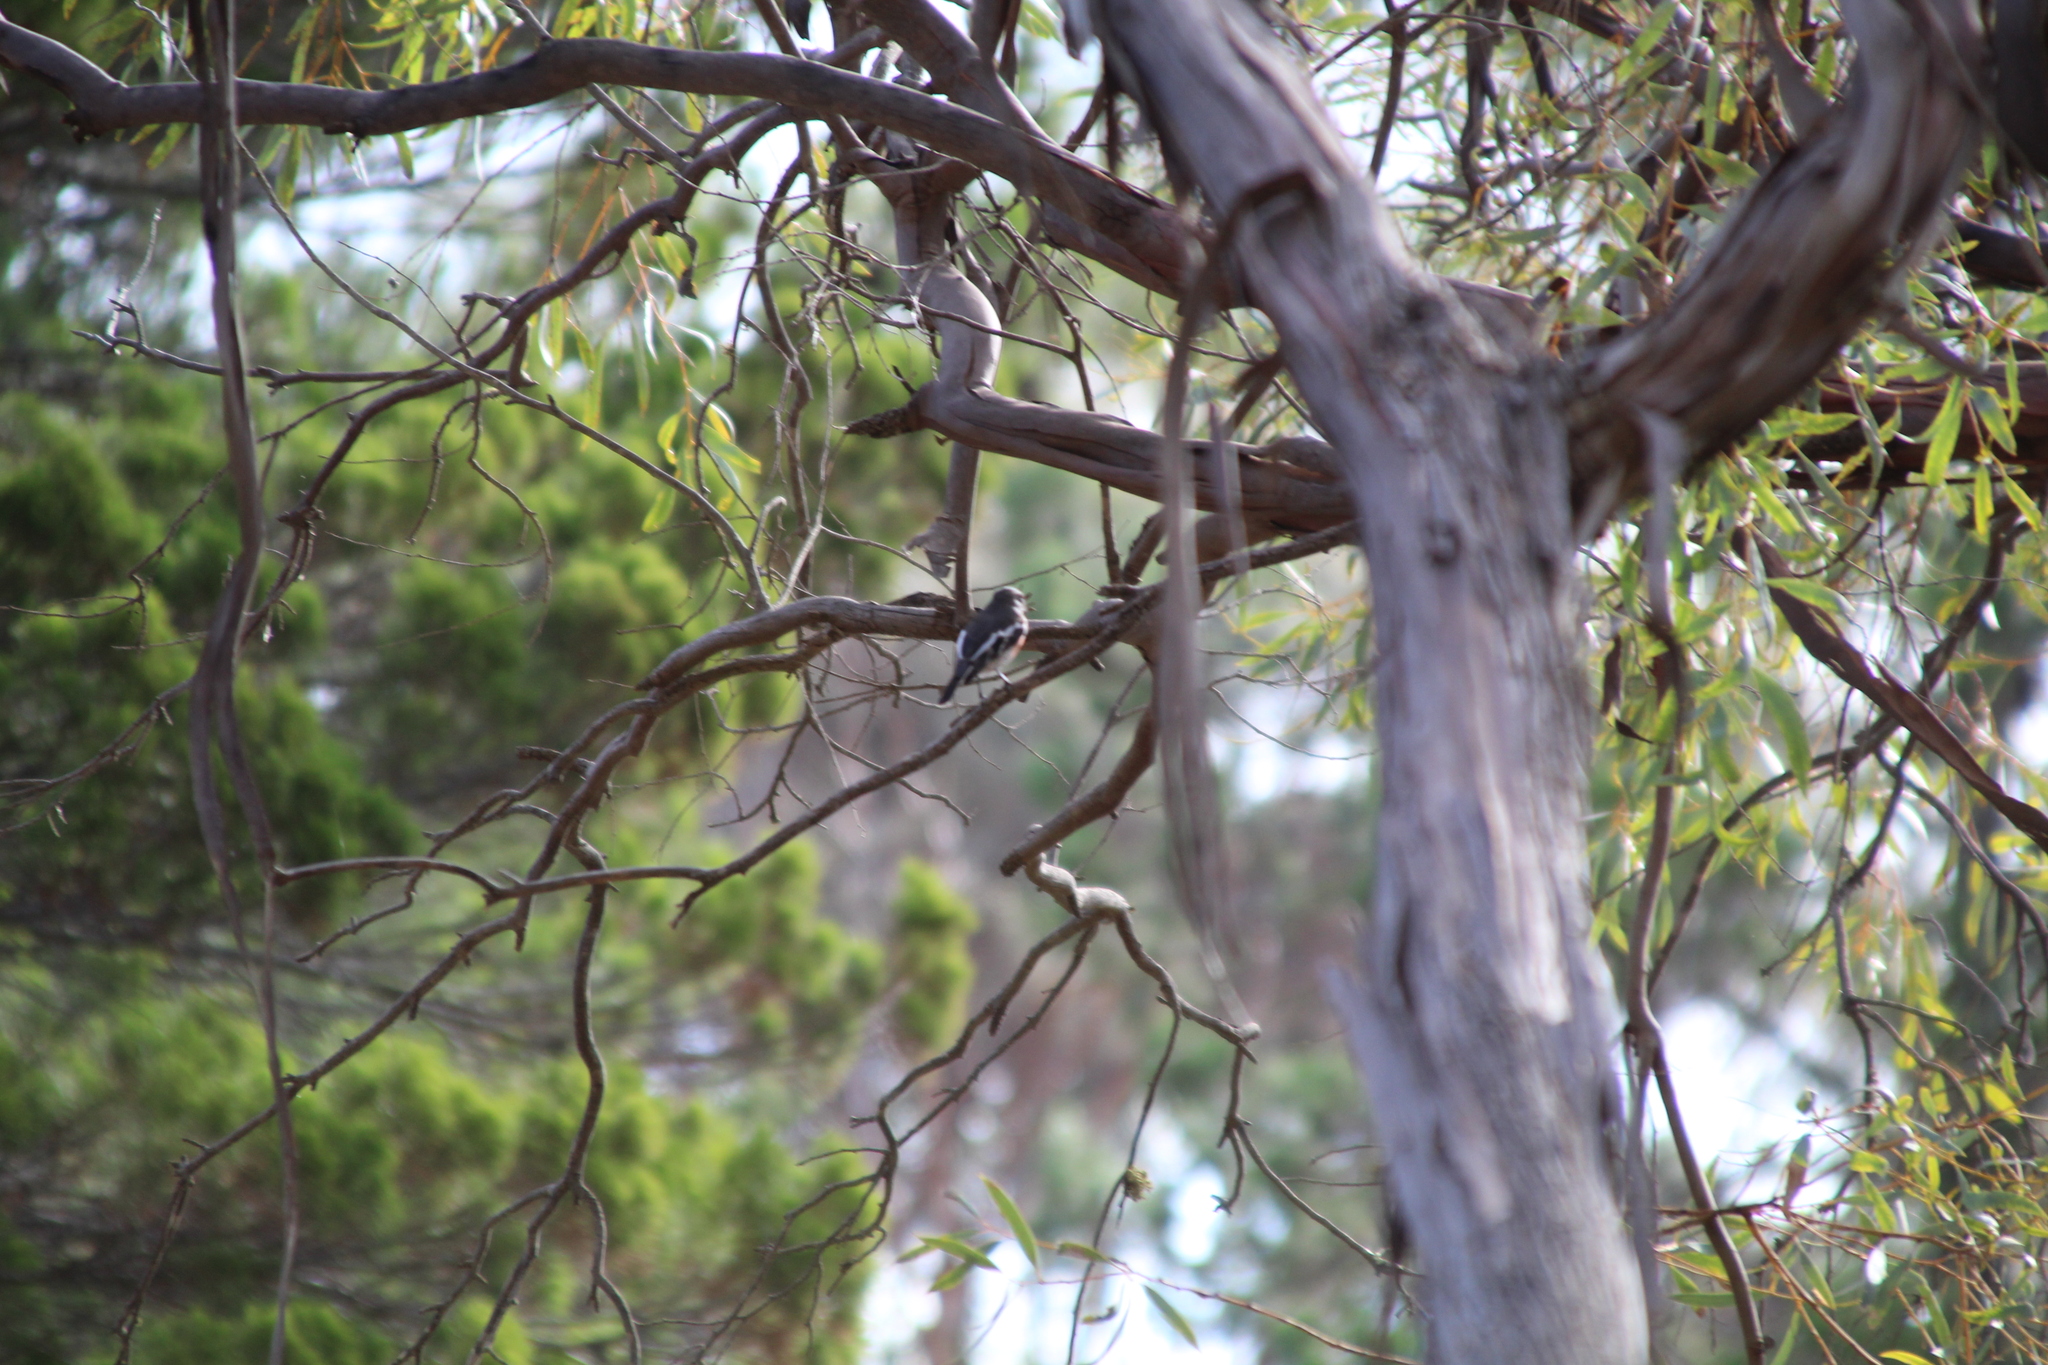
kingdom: Animalia
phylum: Chordata
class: Aves
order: Passeriformes
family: Petroicidae
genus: Petroica
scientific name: Petroica boodang
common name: Scarlet robin
